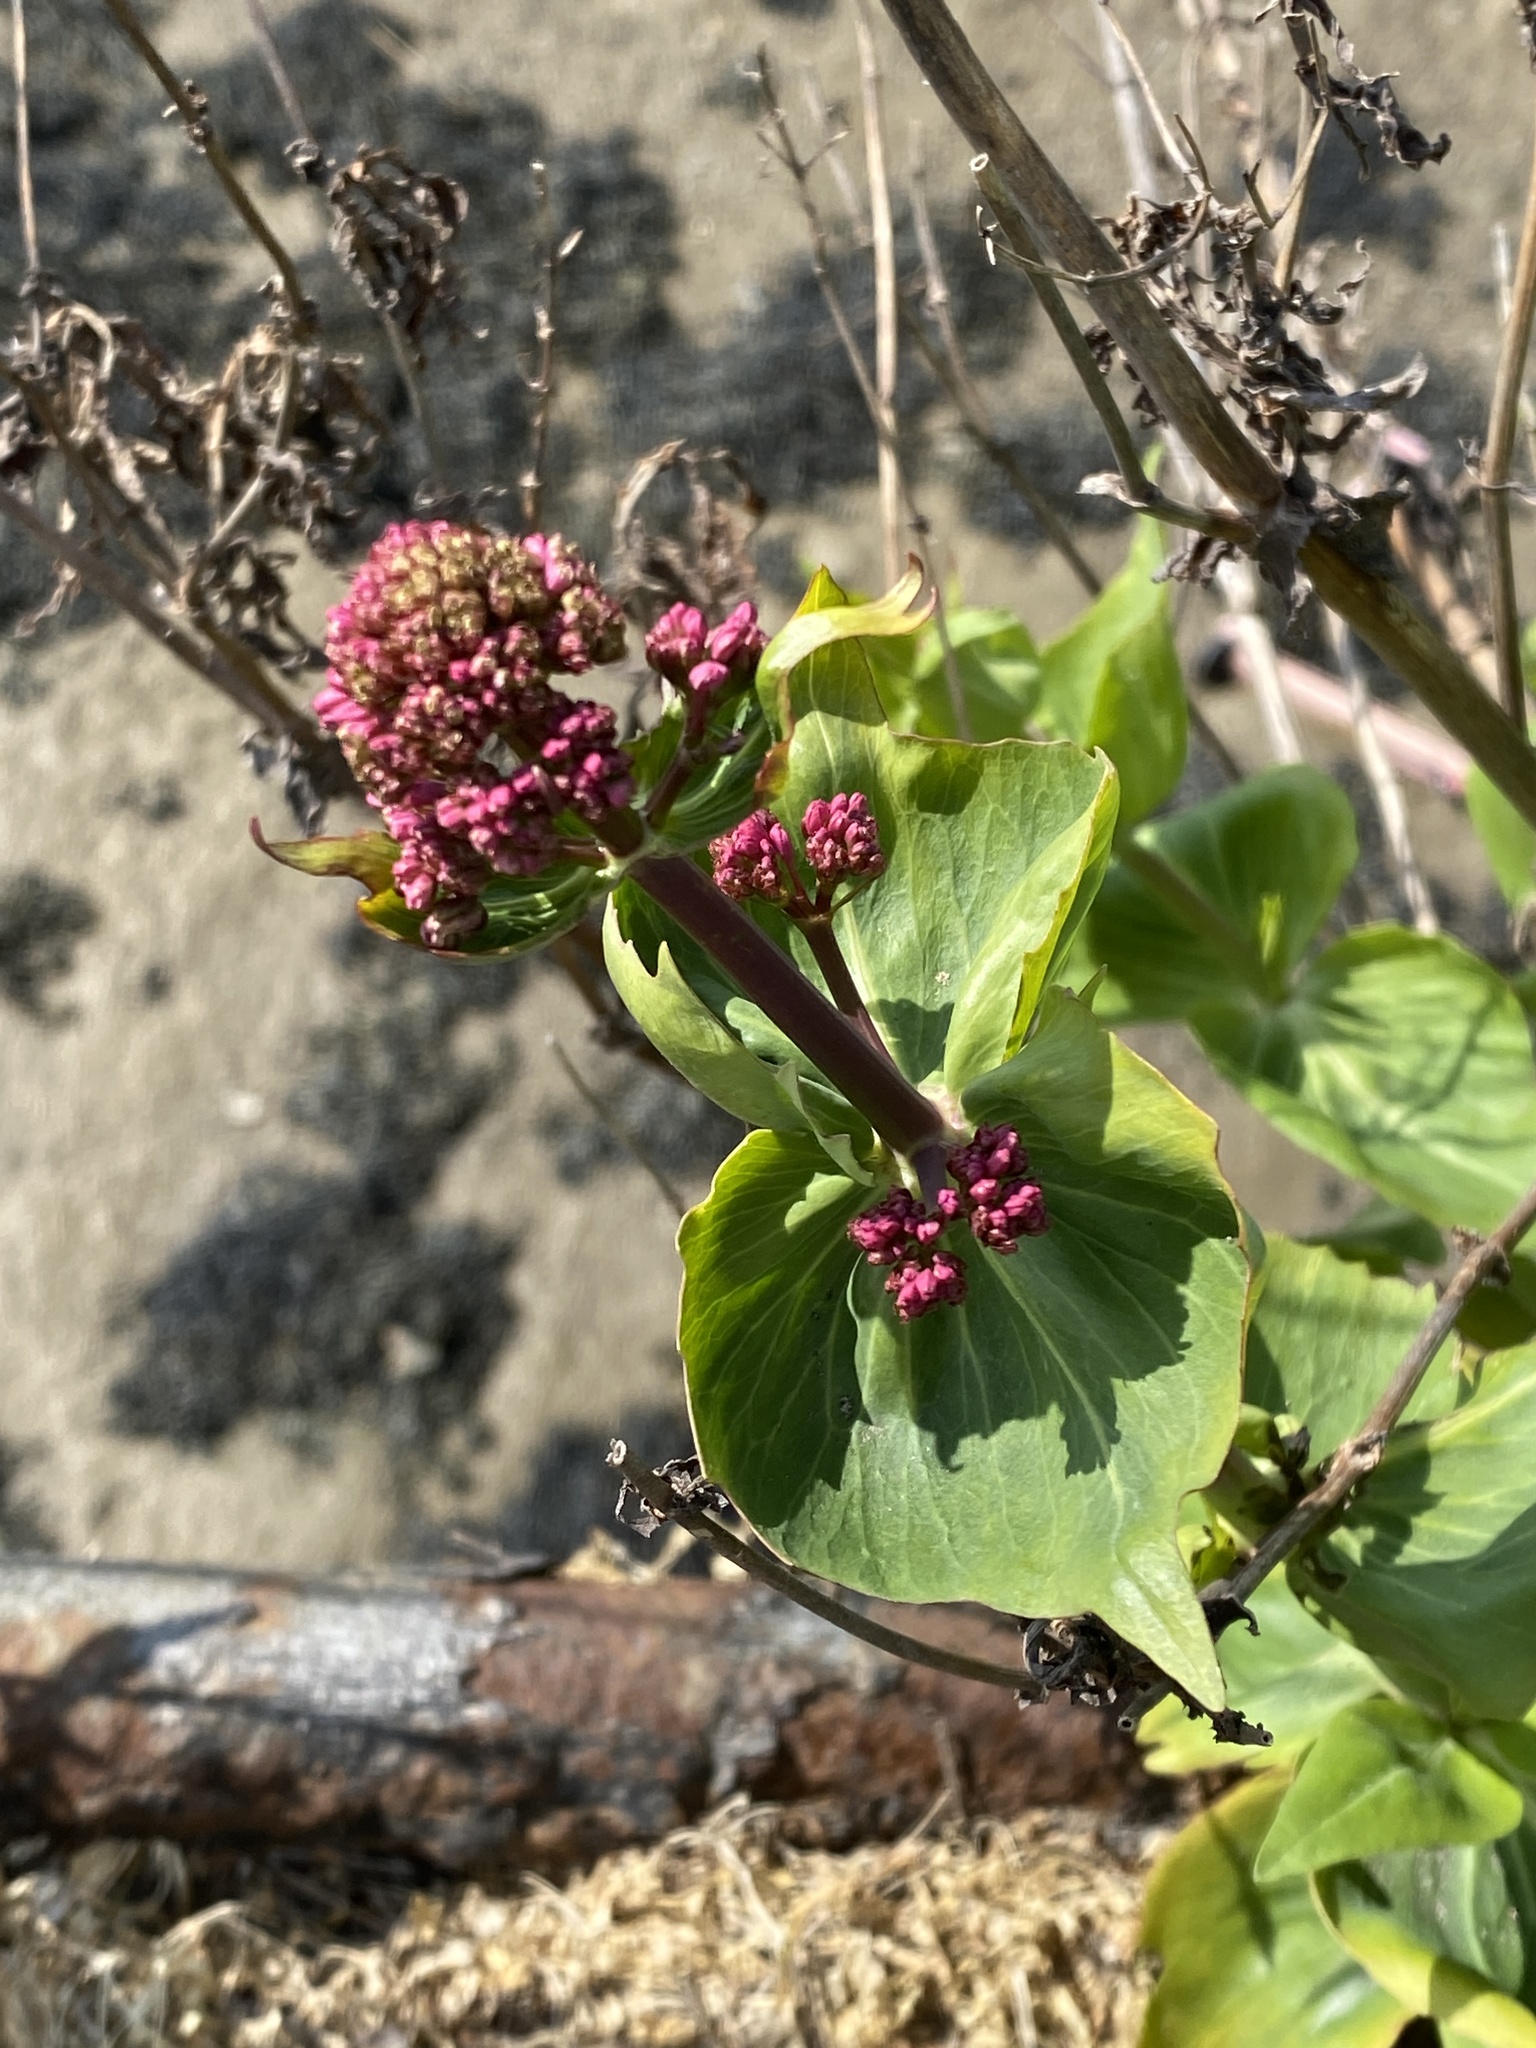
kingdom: Plantae
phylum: Tracheophyta
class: Magnoliopsida
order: Dipsacales
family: Caprifoliaceae
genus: Centranthus
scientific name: Centranthus ruber
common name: Red valerian
